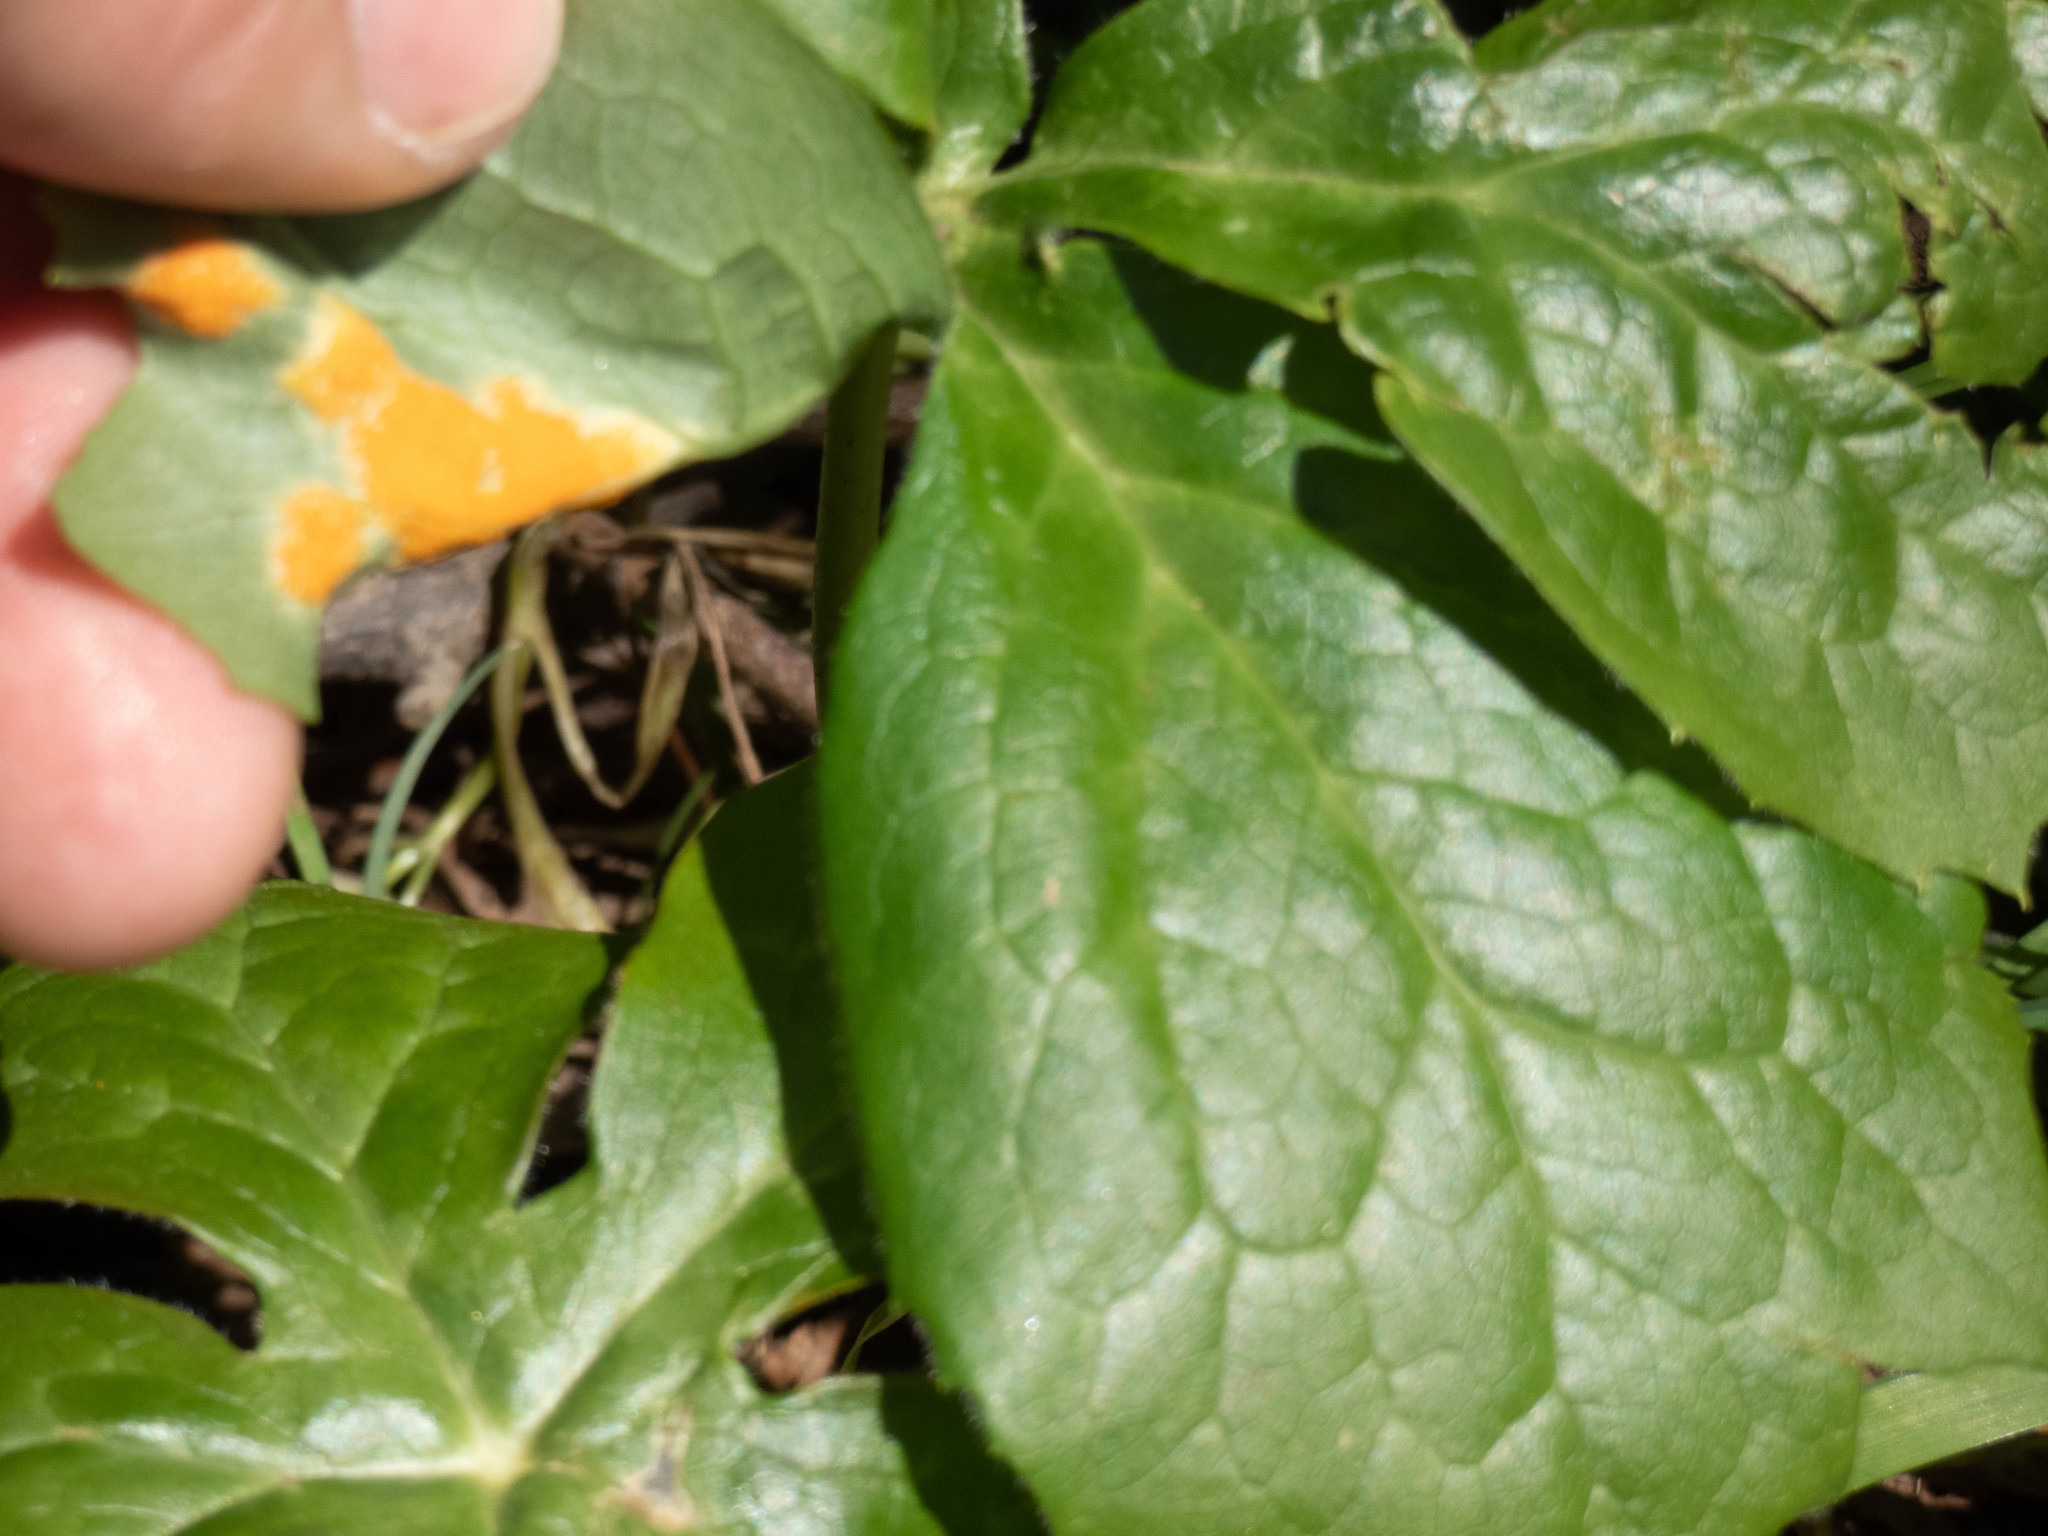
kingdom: Fungi
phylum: Basidiomycota
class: Pucciniomycetes
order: Pucciniales
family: Pucciniaceae
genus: Puccinia
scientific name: Puccinia podophylli
